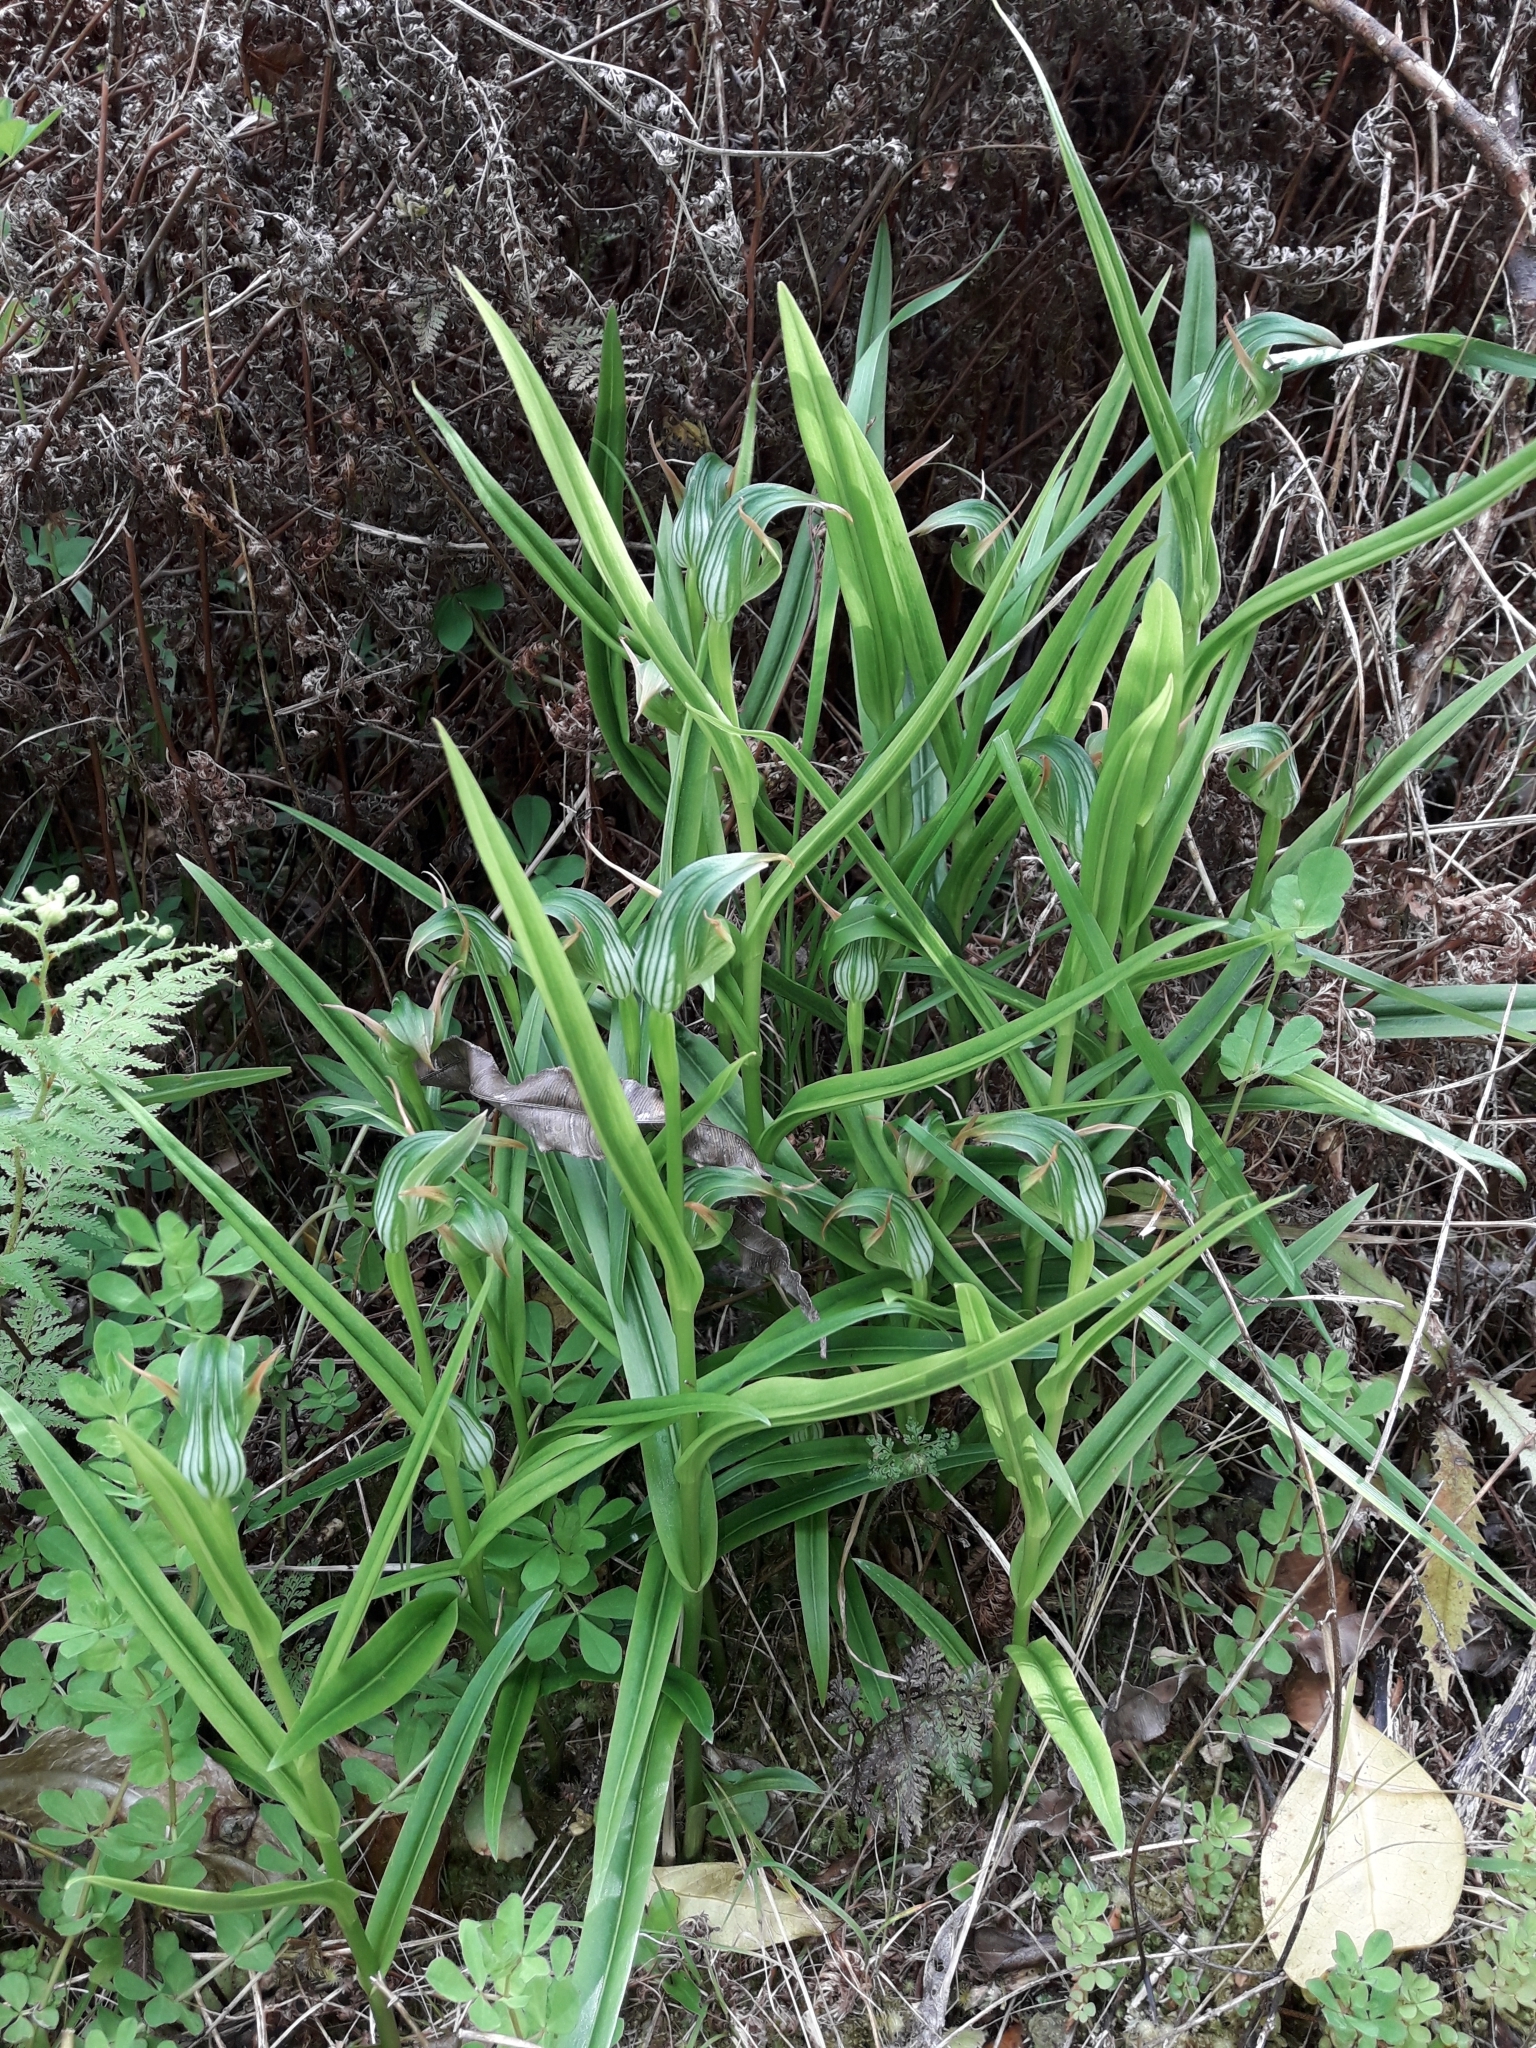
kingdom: Plantae
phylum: Tracheophyta
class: Liliopsida
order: Asparagales
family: Orchidaceae
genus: Pterostylis
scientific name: Pterostylis montana
